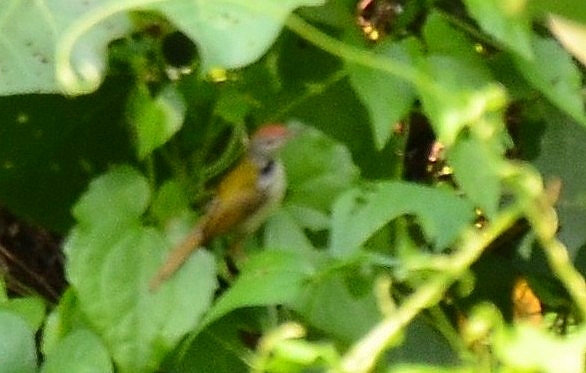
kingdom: Animalia
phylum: Chordata
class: Aves
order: Passeriformes
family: Cisticolidae
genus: Orthotomus
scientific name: Orthotomus sutorius
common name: Common tailorbird
